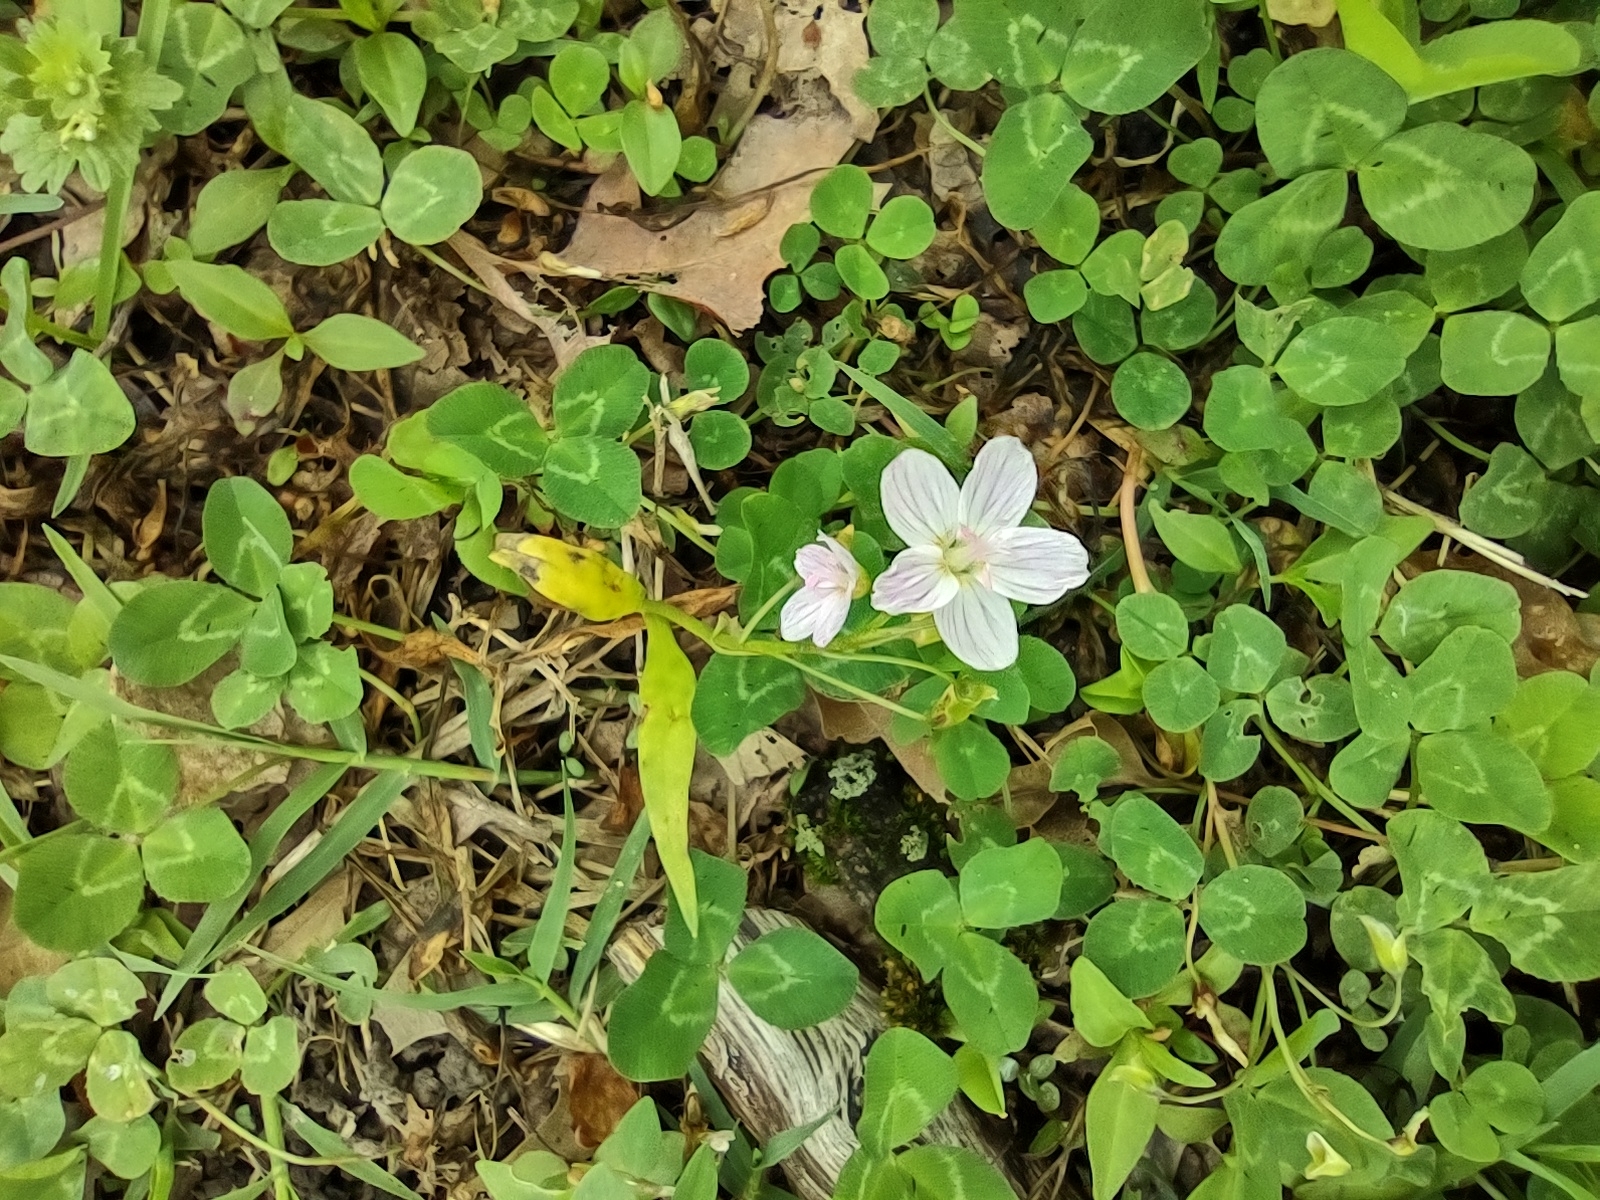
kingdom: Plantae
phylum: Tracheophyta
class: Magnoliopsida
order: Caryophyllales
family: Montiaceae
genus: Claytonia
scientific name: Claytonia virginica
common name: Virginia springbeauty
